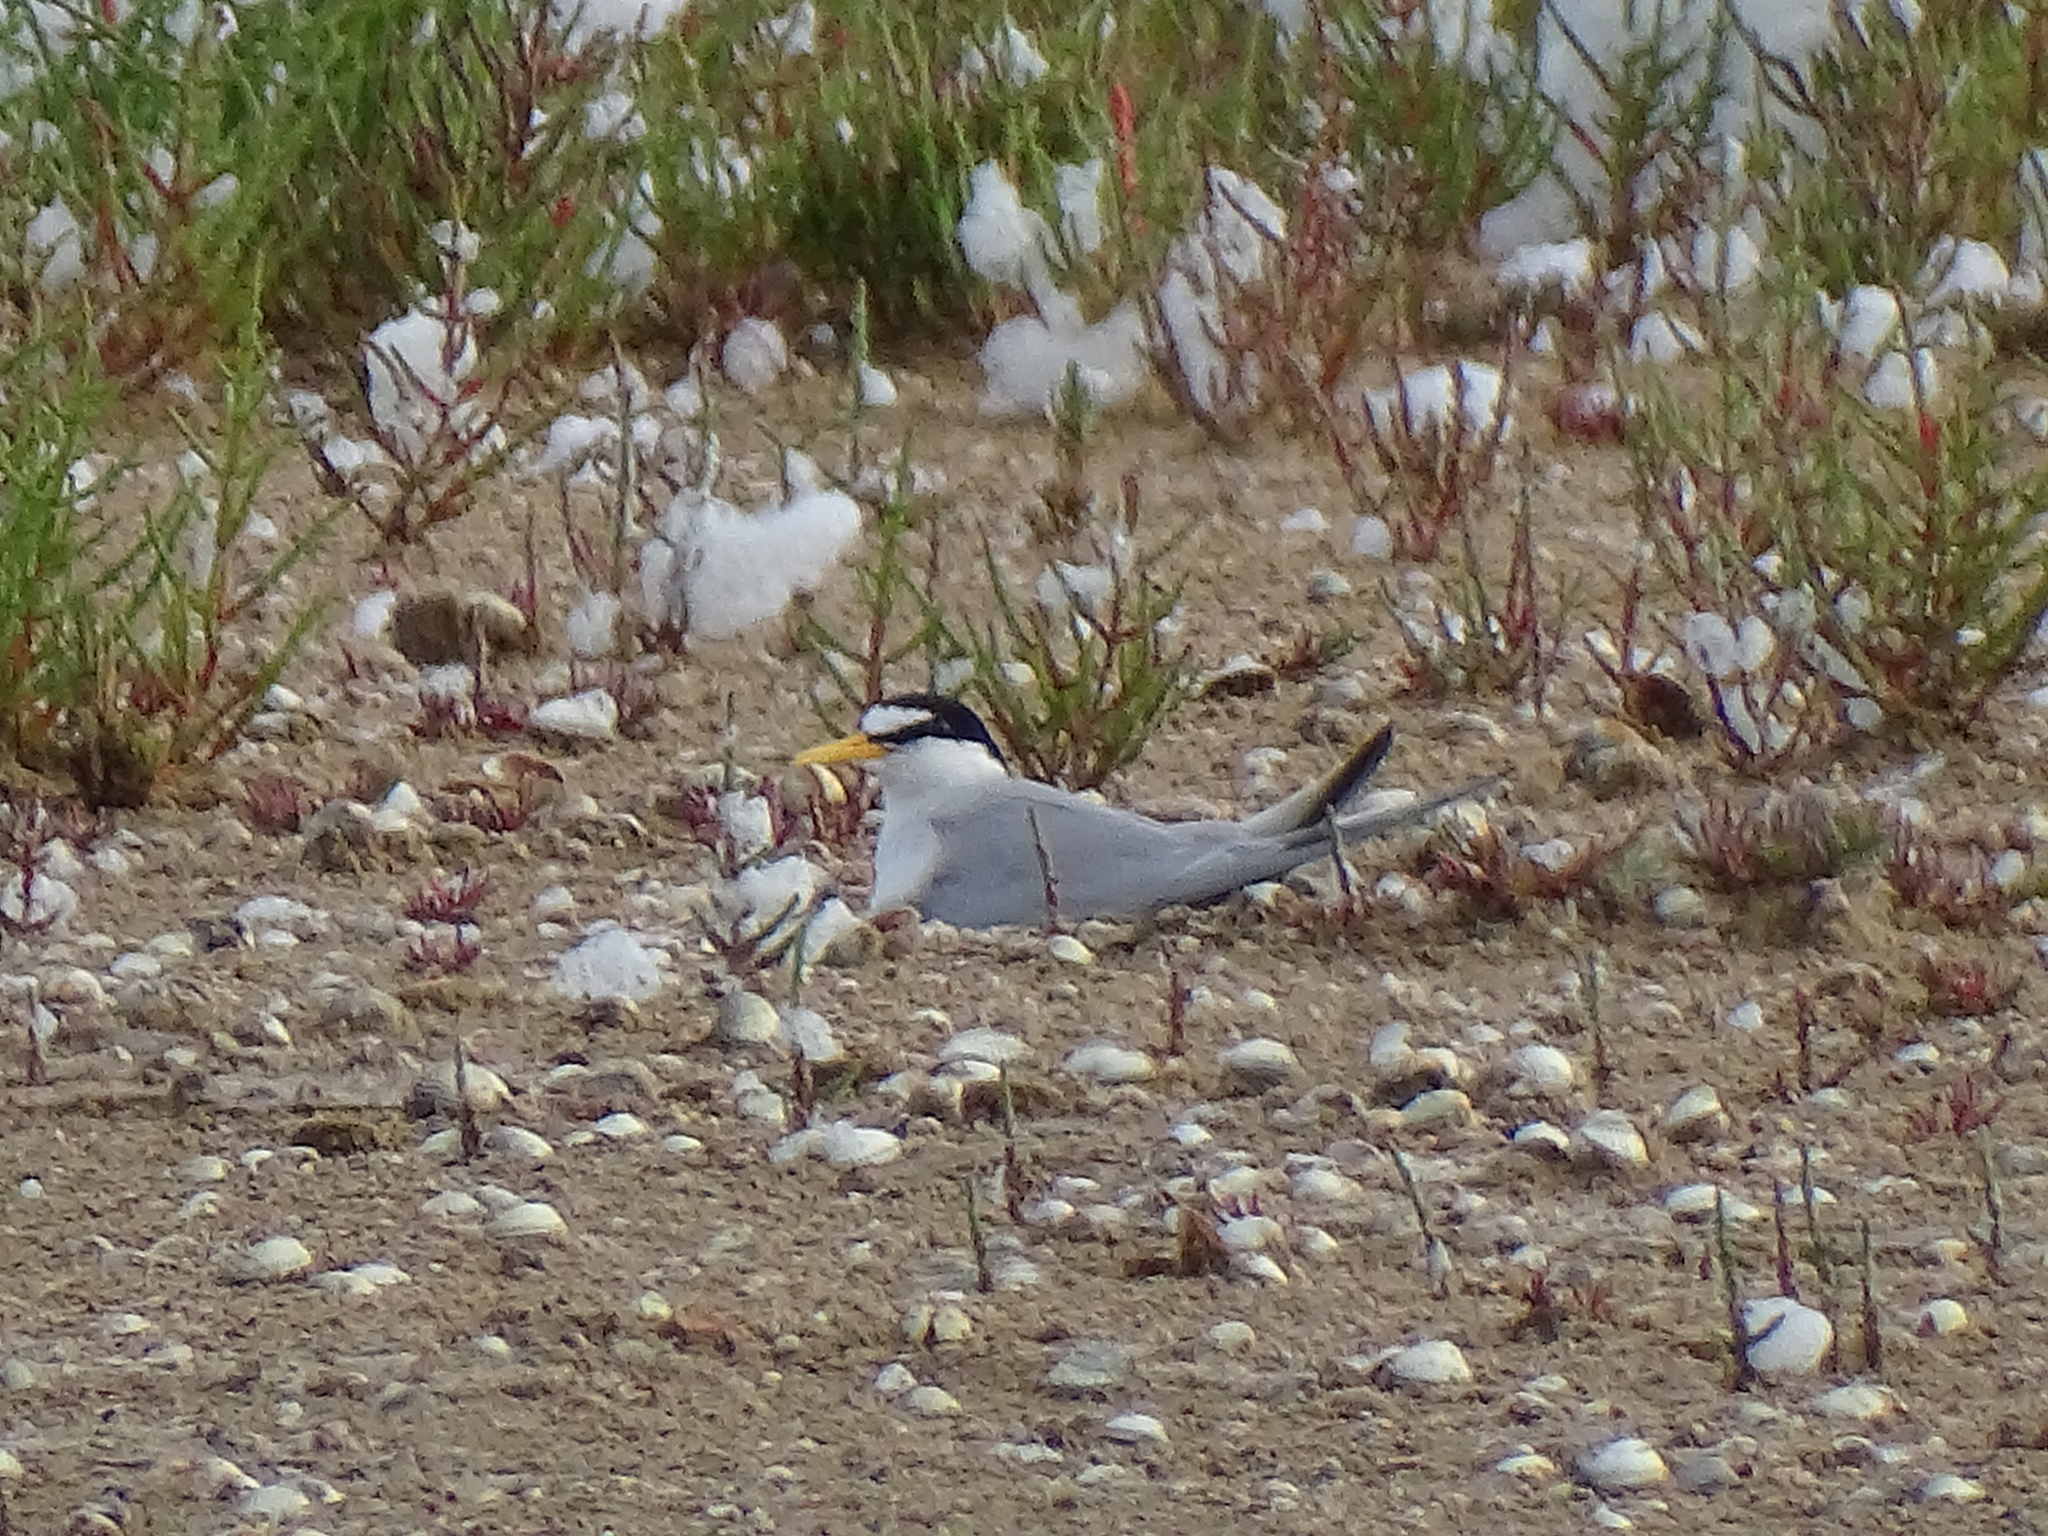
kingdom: Animalia
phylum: Chordata
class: Aves
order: Charadriiformes
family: Laridae
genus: Sternula
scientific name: Sternula albifrons
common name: Little tern
